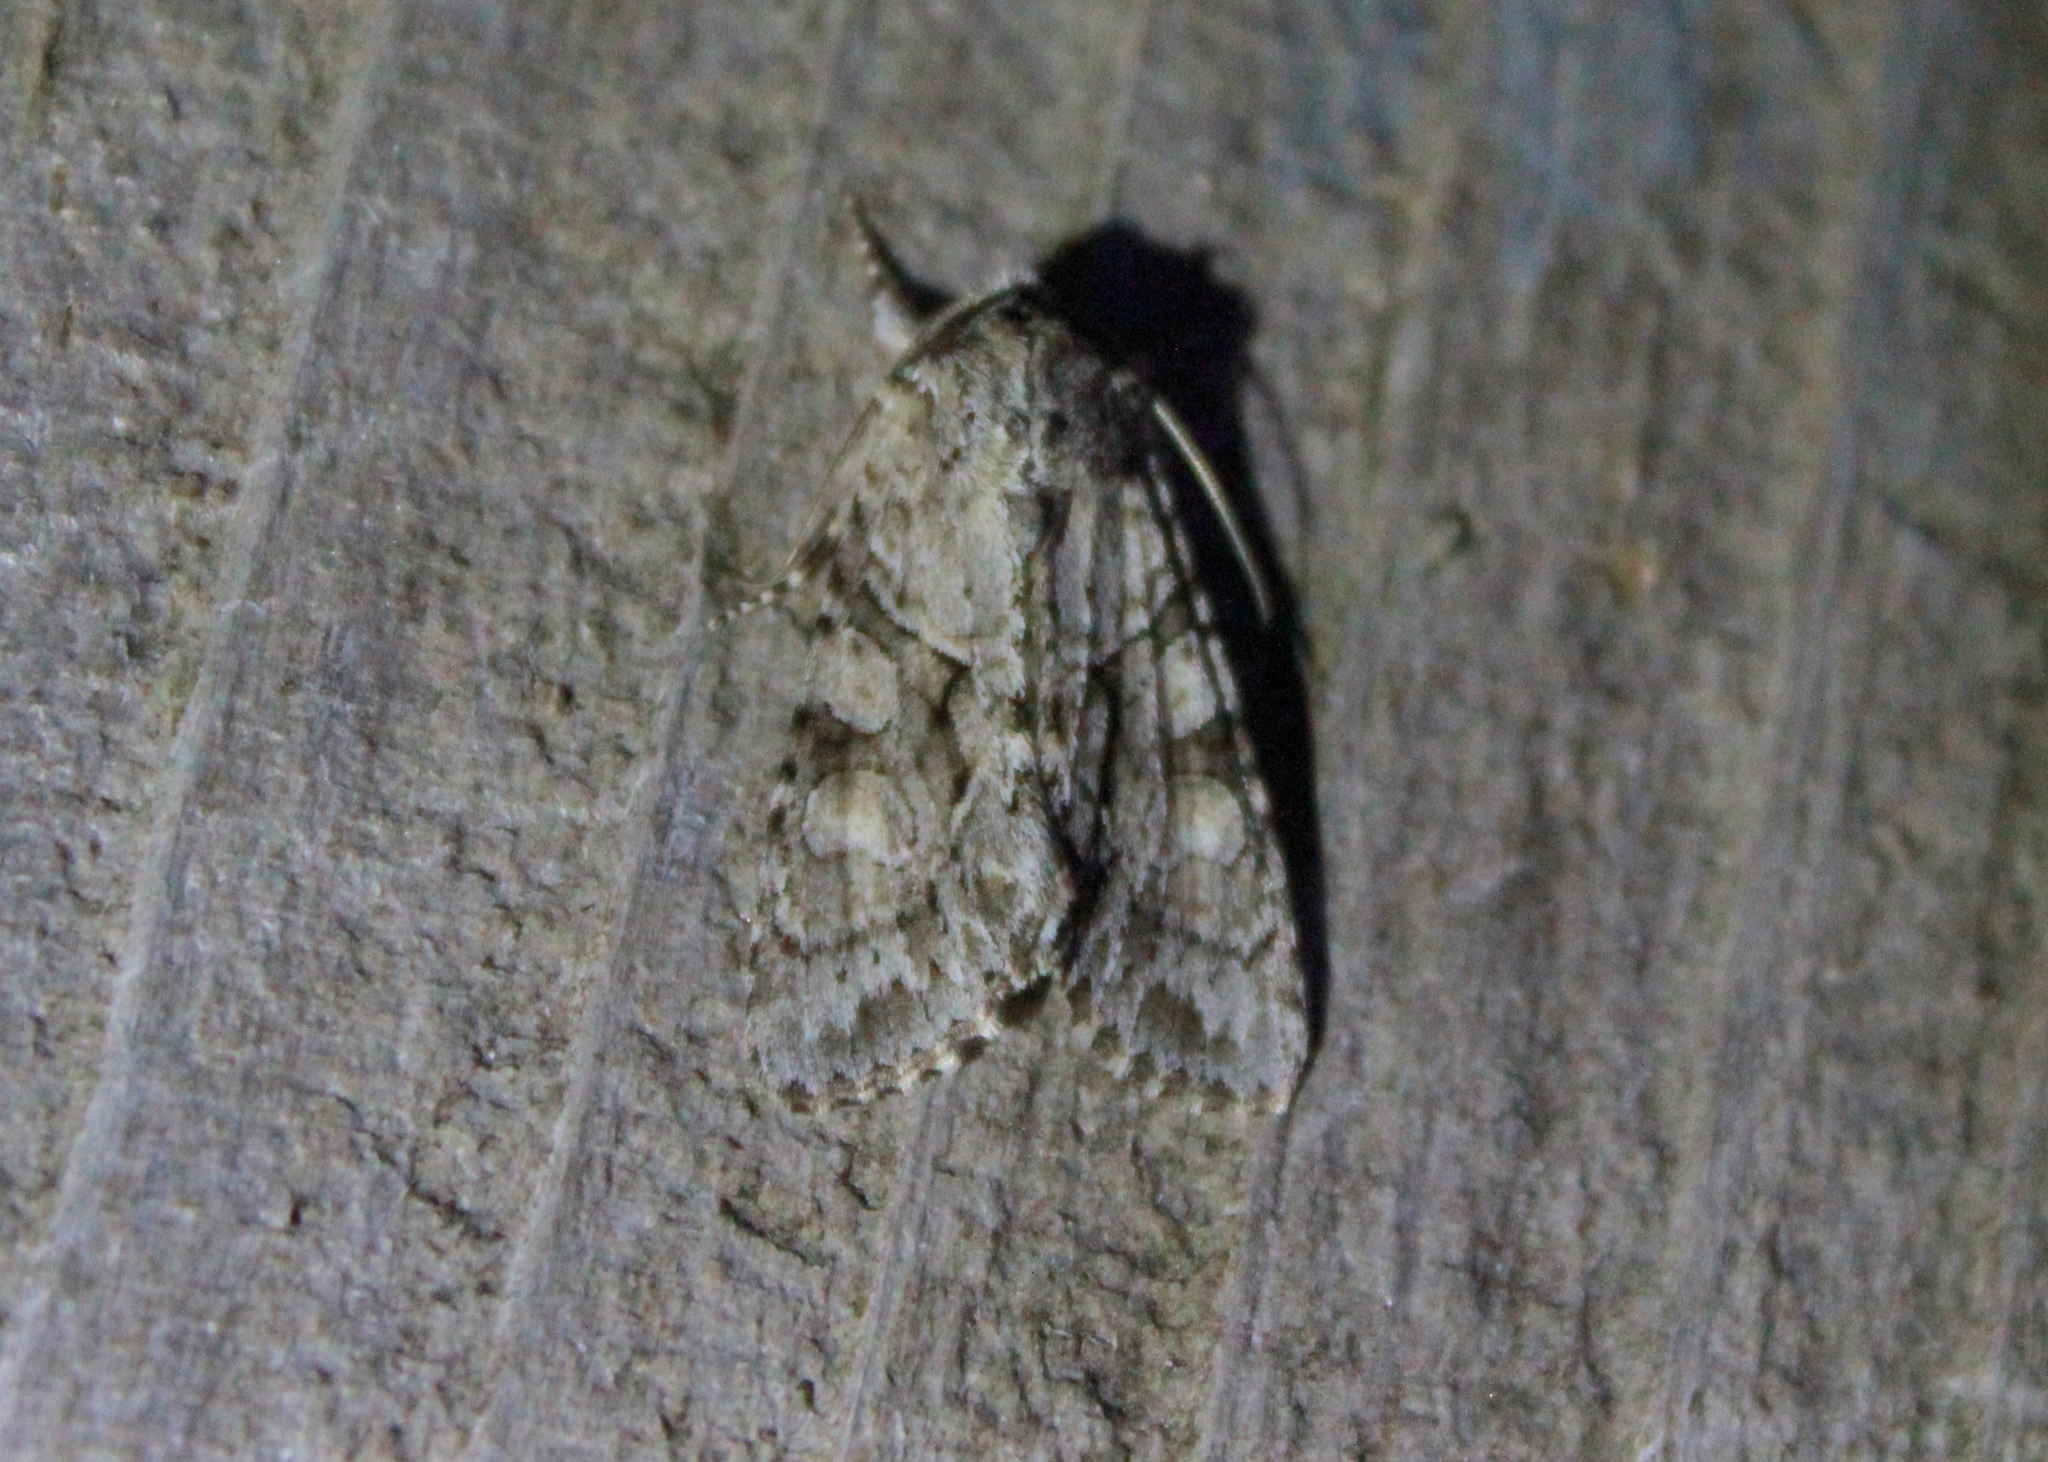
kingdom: Animalia
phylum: Arthropoda
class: Insecta
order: Lepidoptera
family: Noctuidae
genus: Achatia
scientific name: Achatia distincta
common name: Distinct quaker
